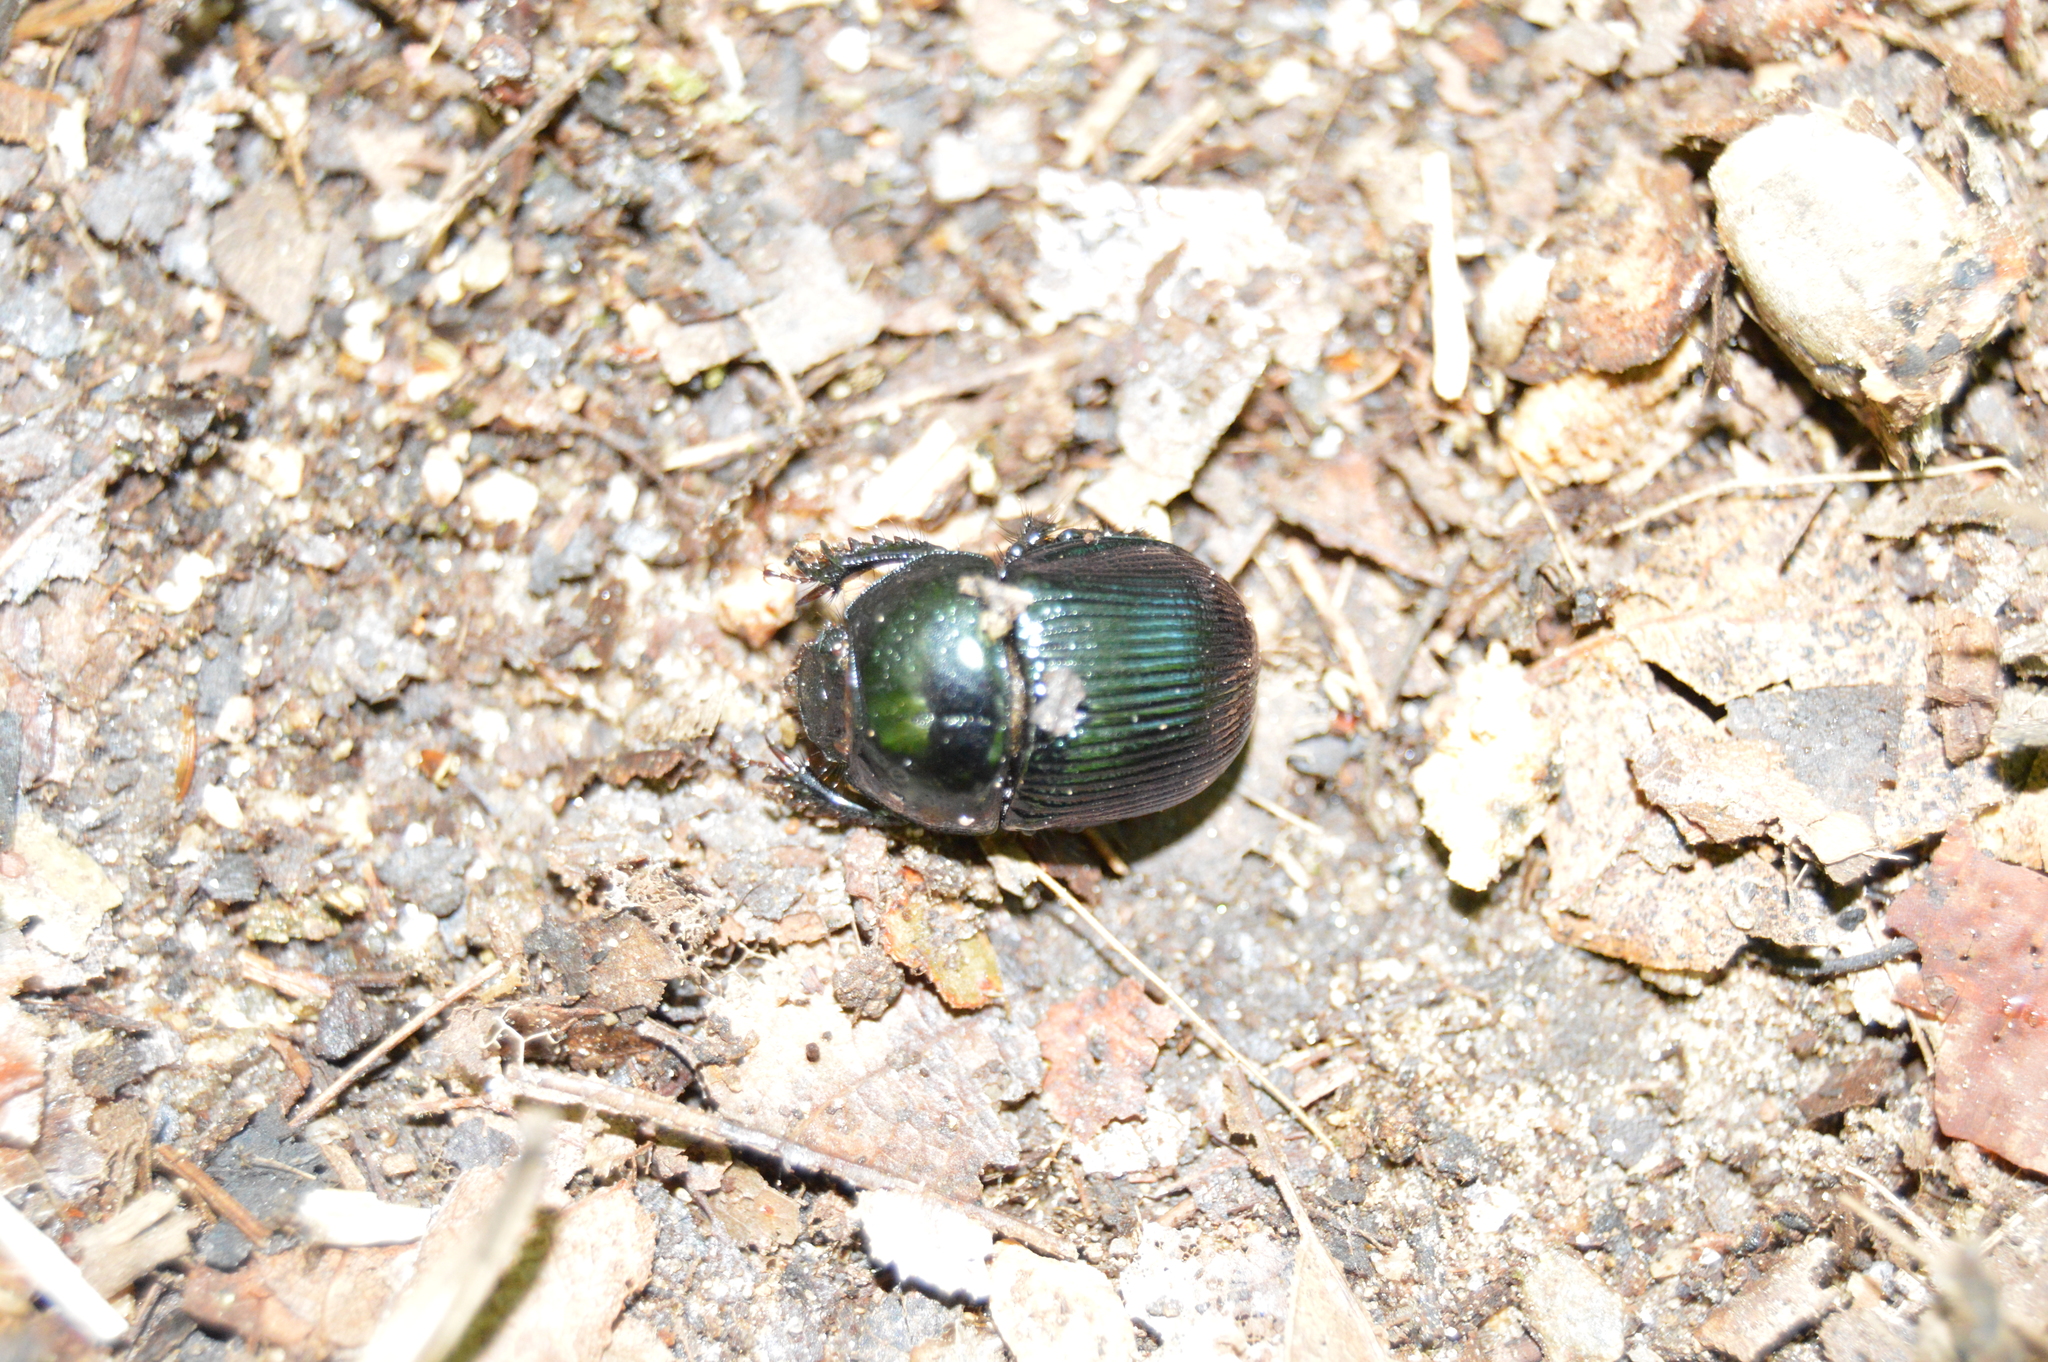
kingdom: Animalia
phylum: Arthropoda
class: Insecta
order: Coleoptera
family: Geotrupidae
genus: Anoplotrupes
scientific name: Anoplotrupes balyi
